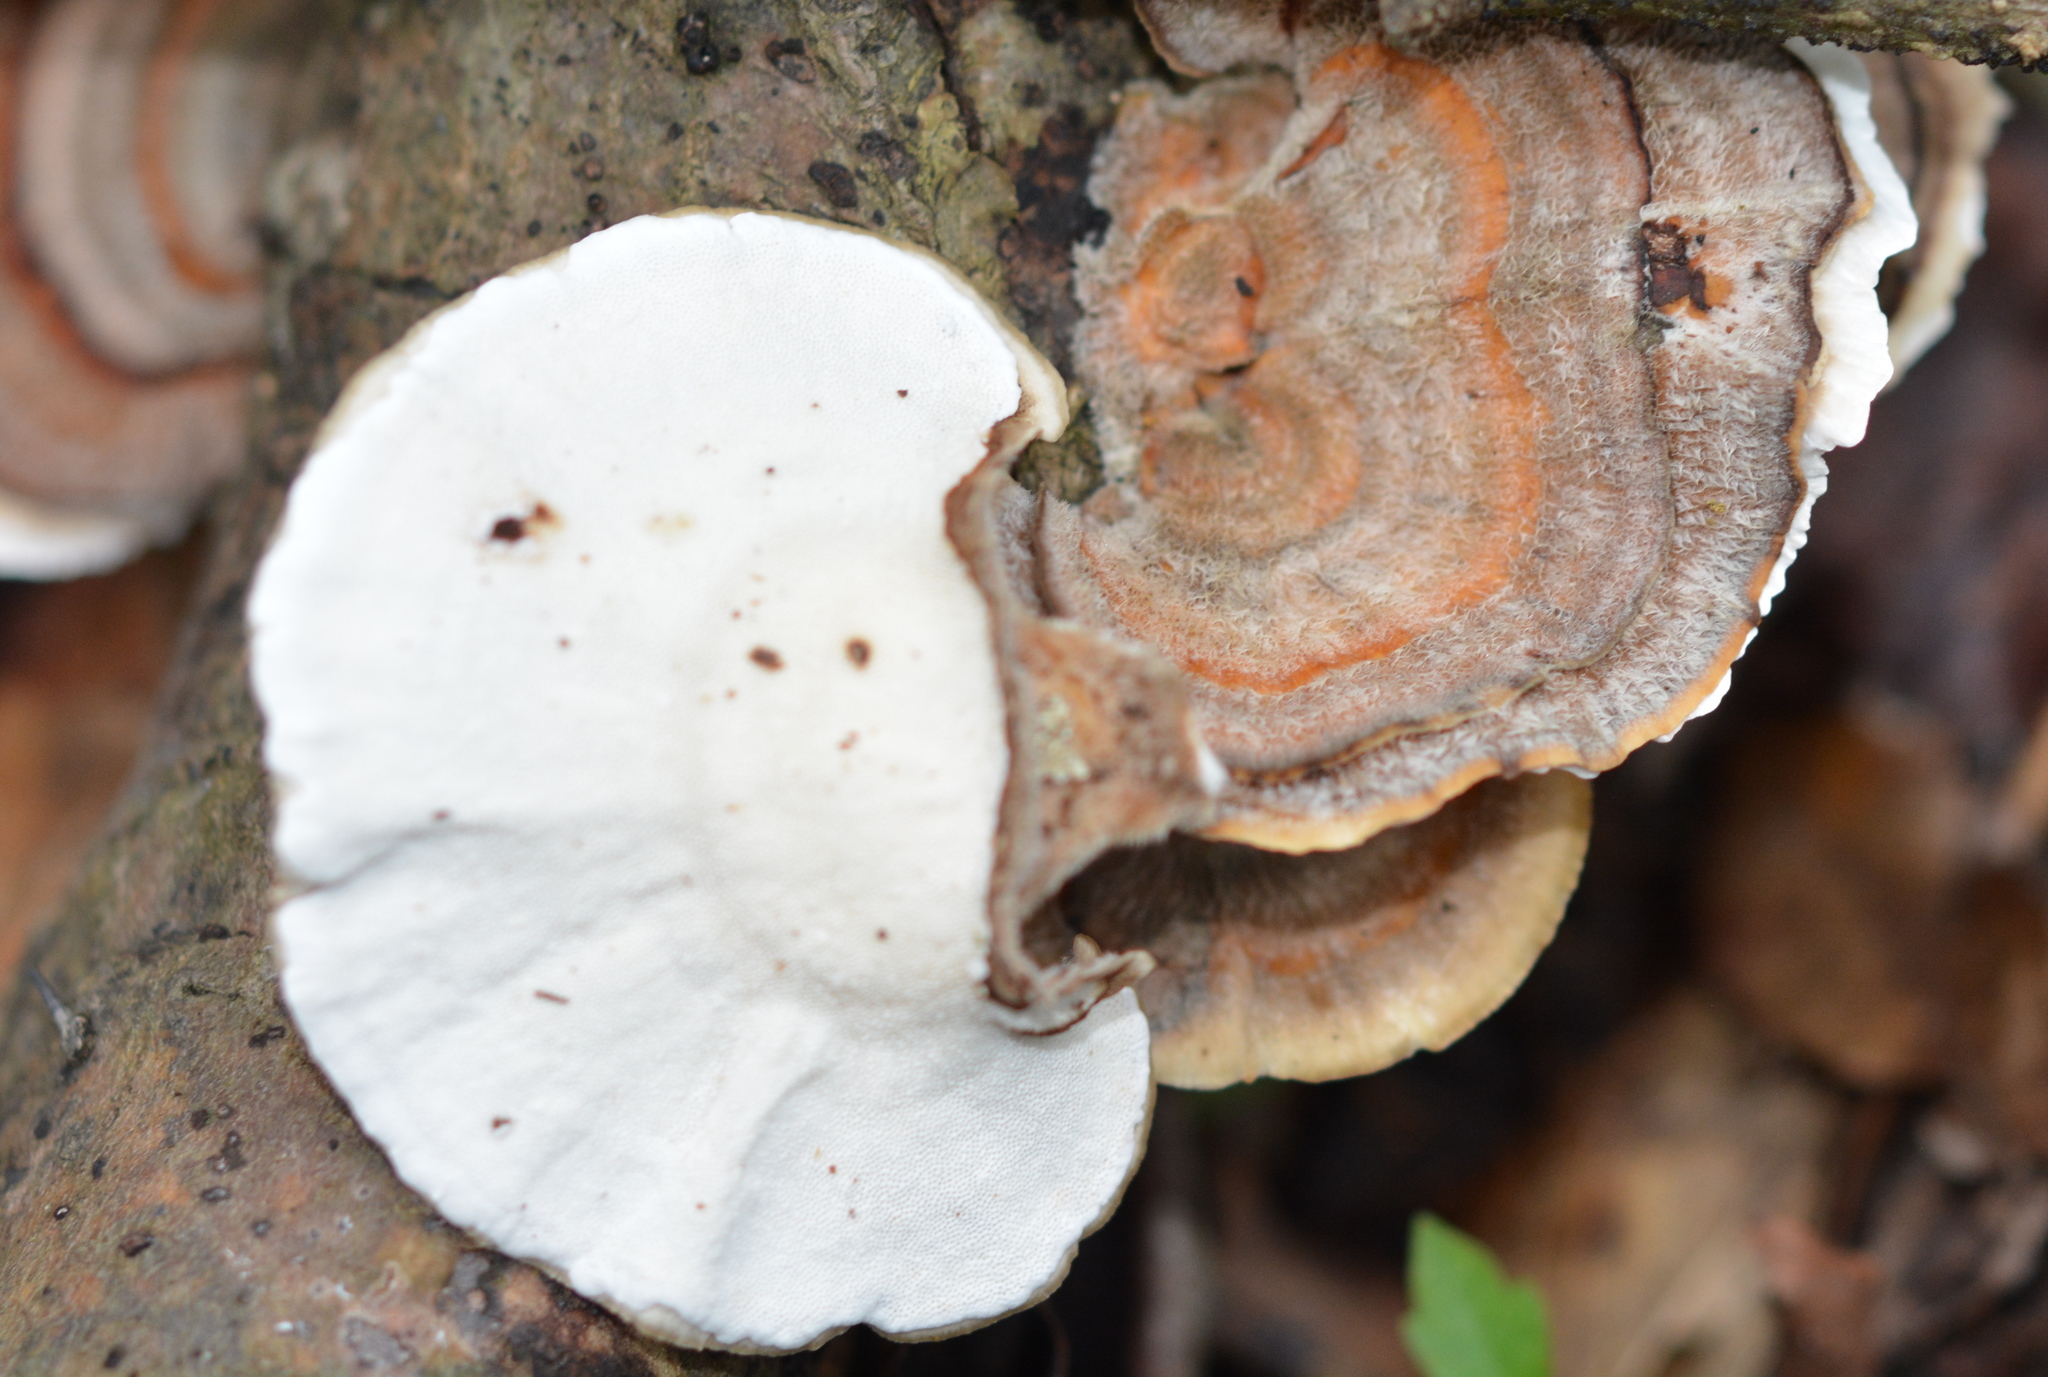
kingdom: Fungi
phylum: Basidiomycota
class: Agaricomycetes
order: Polyporales
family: Polyporaceae
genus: Trametes
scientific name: Trametes versicolor
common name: Turkeytail
